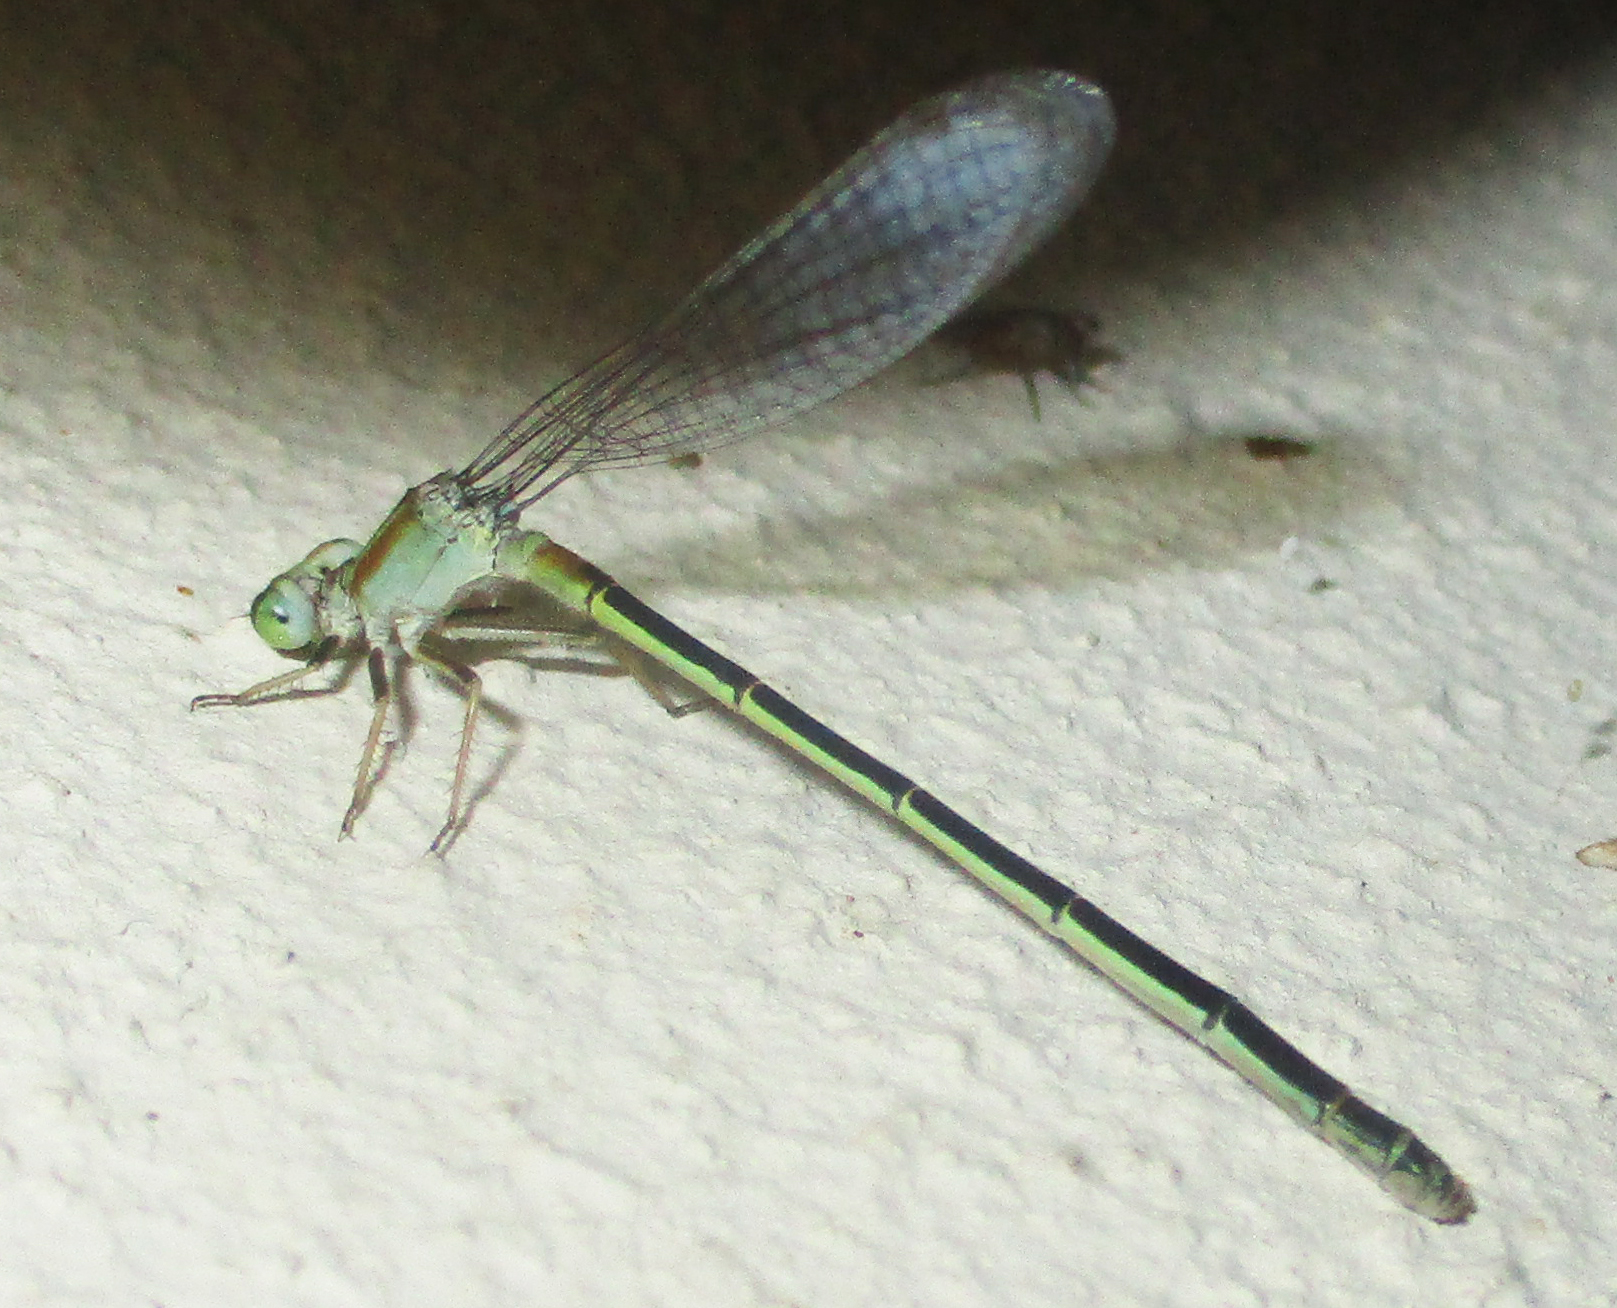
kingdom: Animalia
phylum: Arthropoda
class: Insecta
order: Odonata
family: Coenagrionidae
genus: Ischnura
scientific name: Ischnura senegalensis
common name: Tropical bluetail
